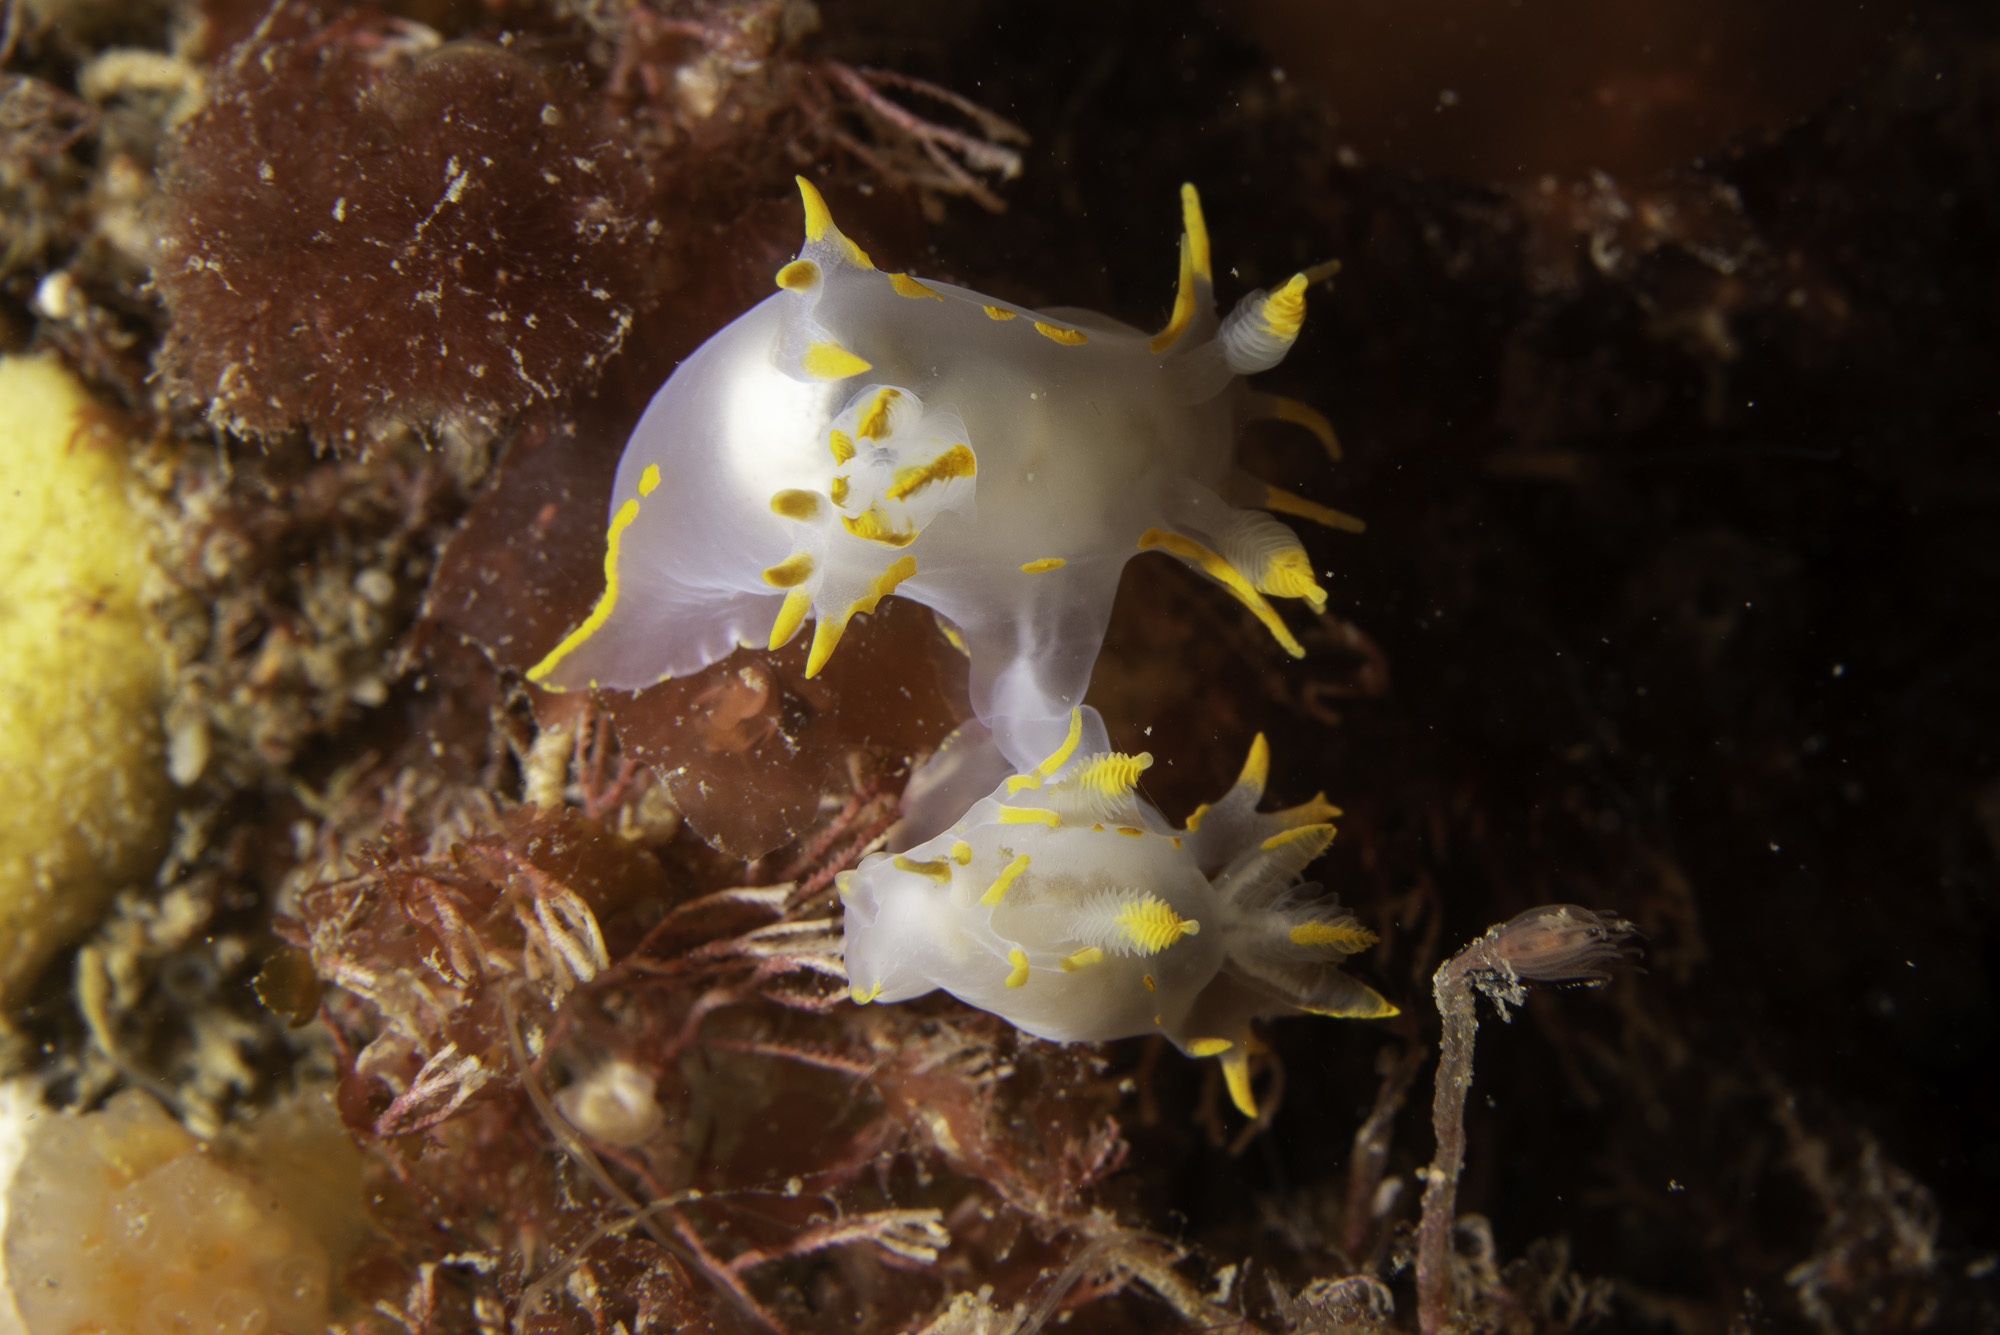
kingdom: Animalia
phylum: Mollusca
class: Gastropoda
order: Nudibranchia
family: Polyceridae
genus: Polycera
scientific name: Polycera faeroensis
